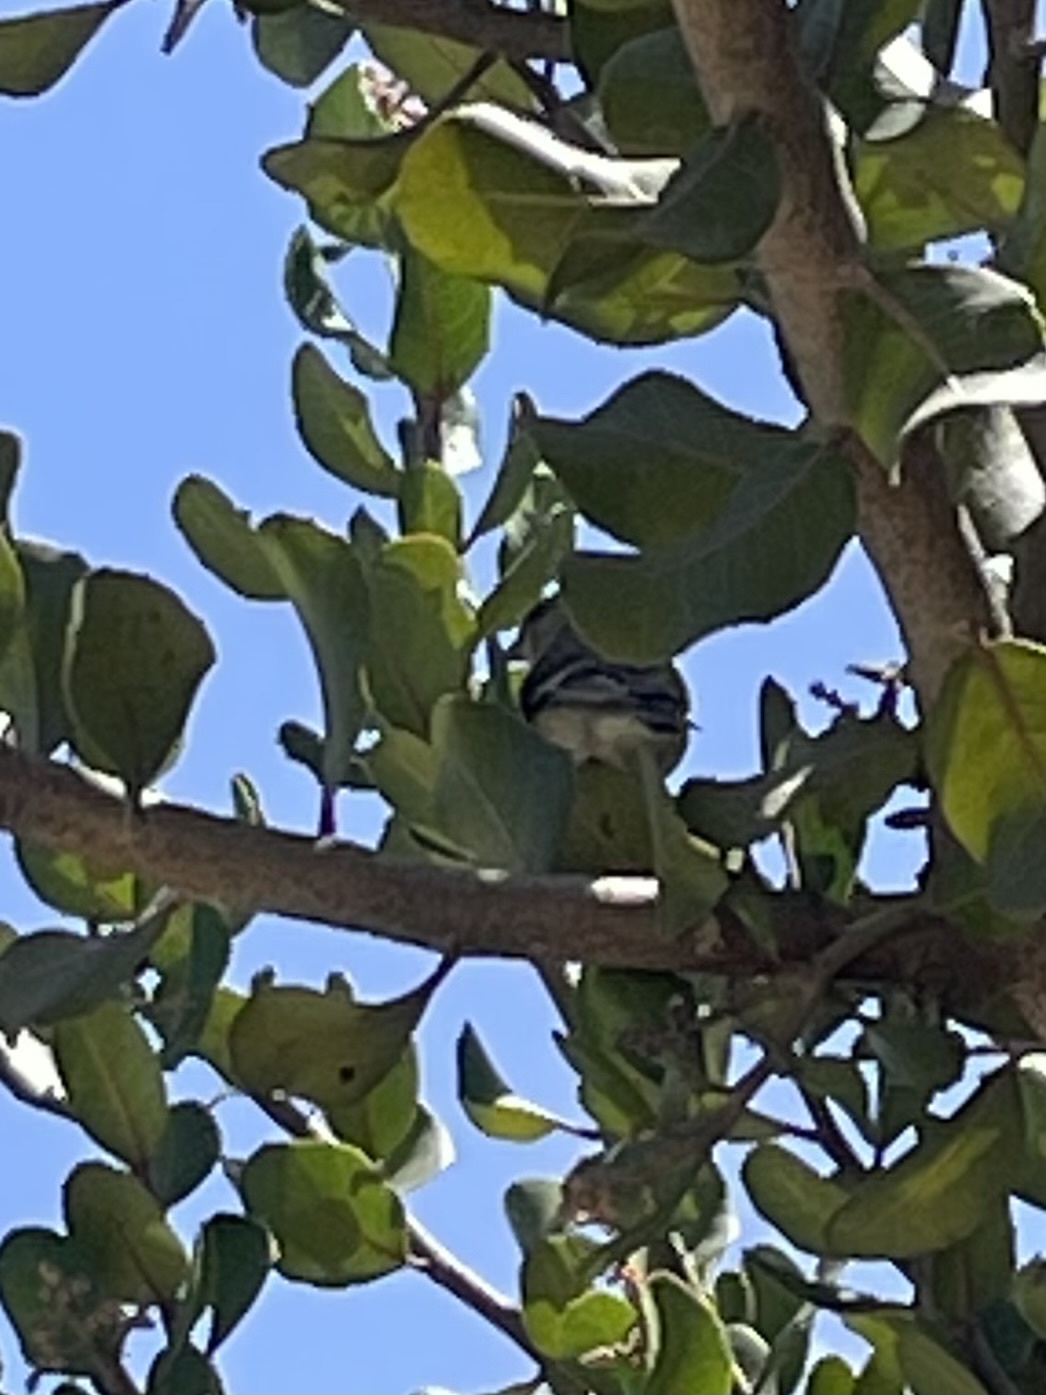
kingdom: Animalia
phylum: Chordata
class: Aves
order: Passeriformes
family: Fringillidae
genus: Spinus
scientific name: Spinus psaltria
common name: Lesser goldfinch
